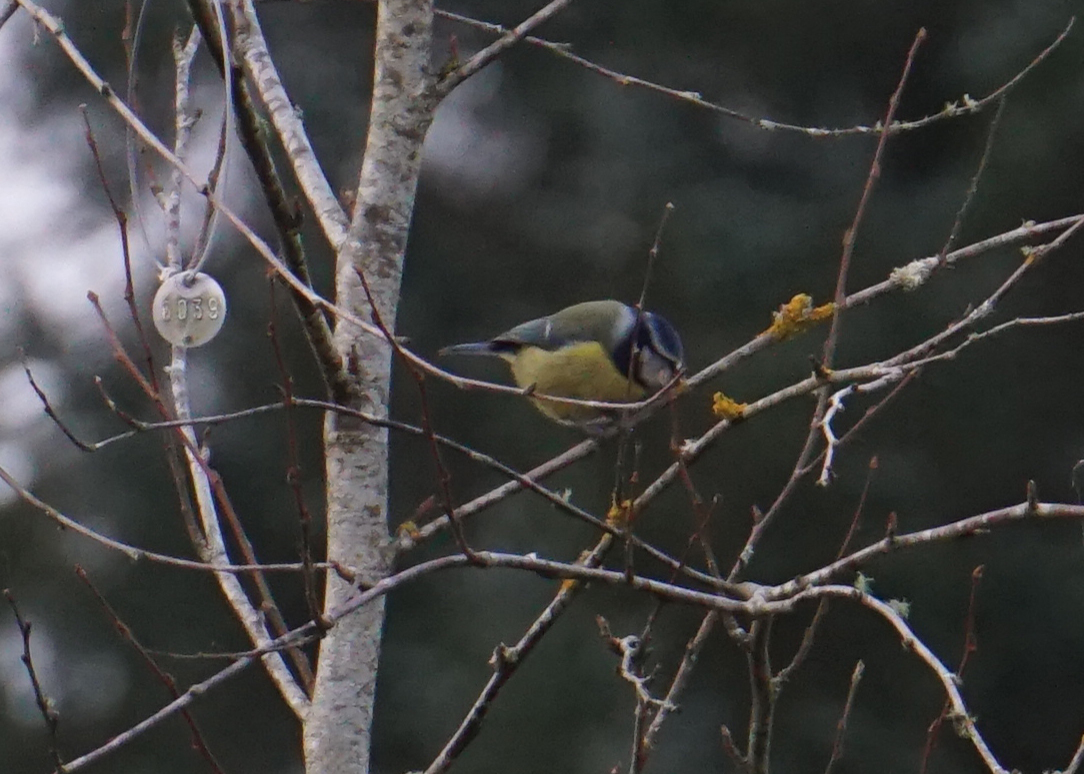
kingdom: Animalia
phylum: Chordata
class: Aves
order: Passeriformes
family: Paridae
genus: Cyanistes
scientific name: Cyanistes caeruleus
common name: Eurasian blue tit
